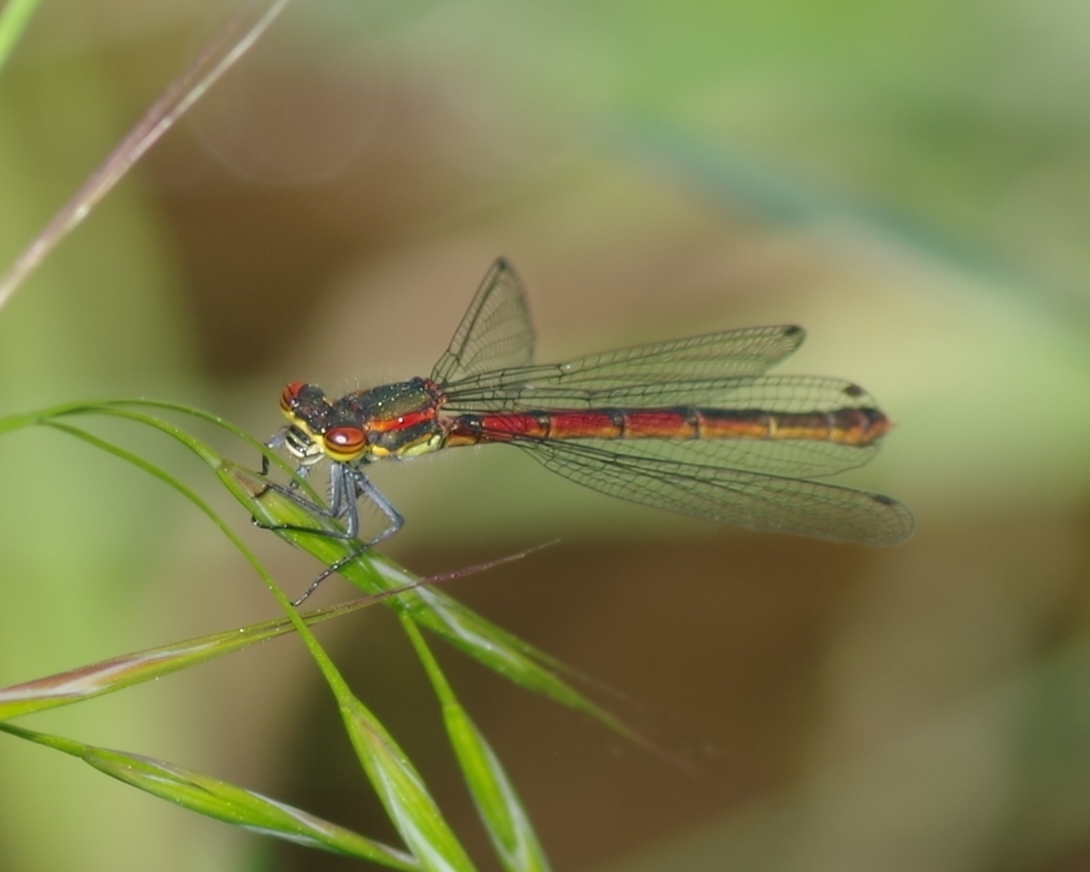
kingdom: Animalia
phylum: Arthropoda
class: Insecta
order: Odonata
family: Coenagrionidae
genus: Pyrrhosoma
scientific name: Pyrrhosoma nymphula
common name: Large red damsel
